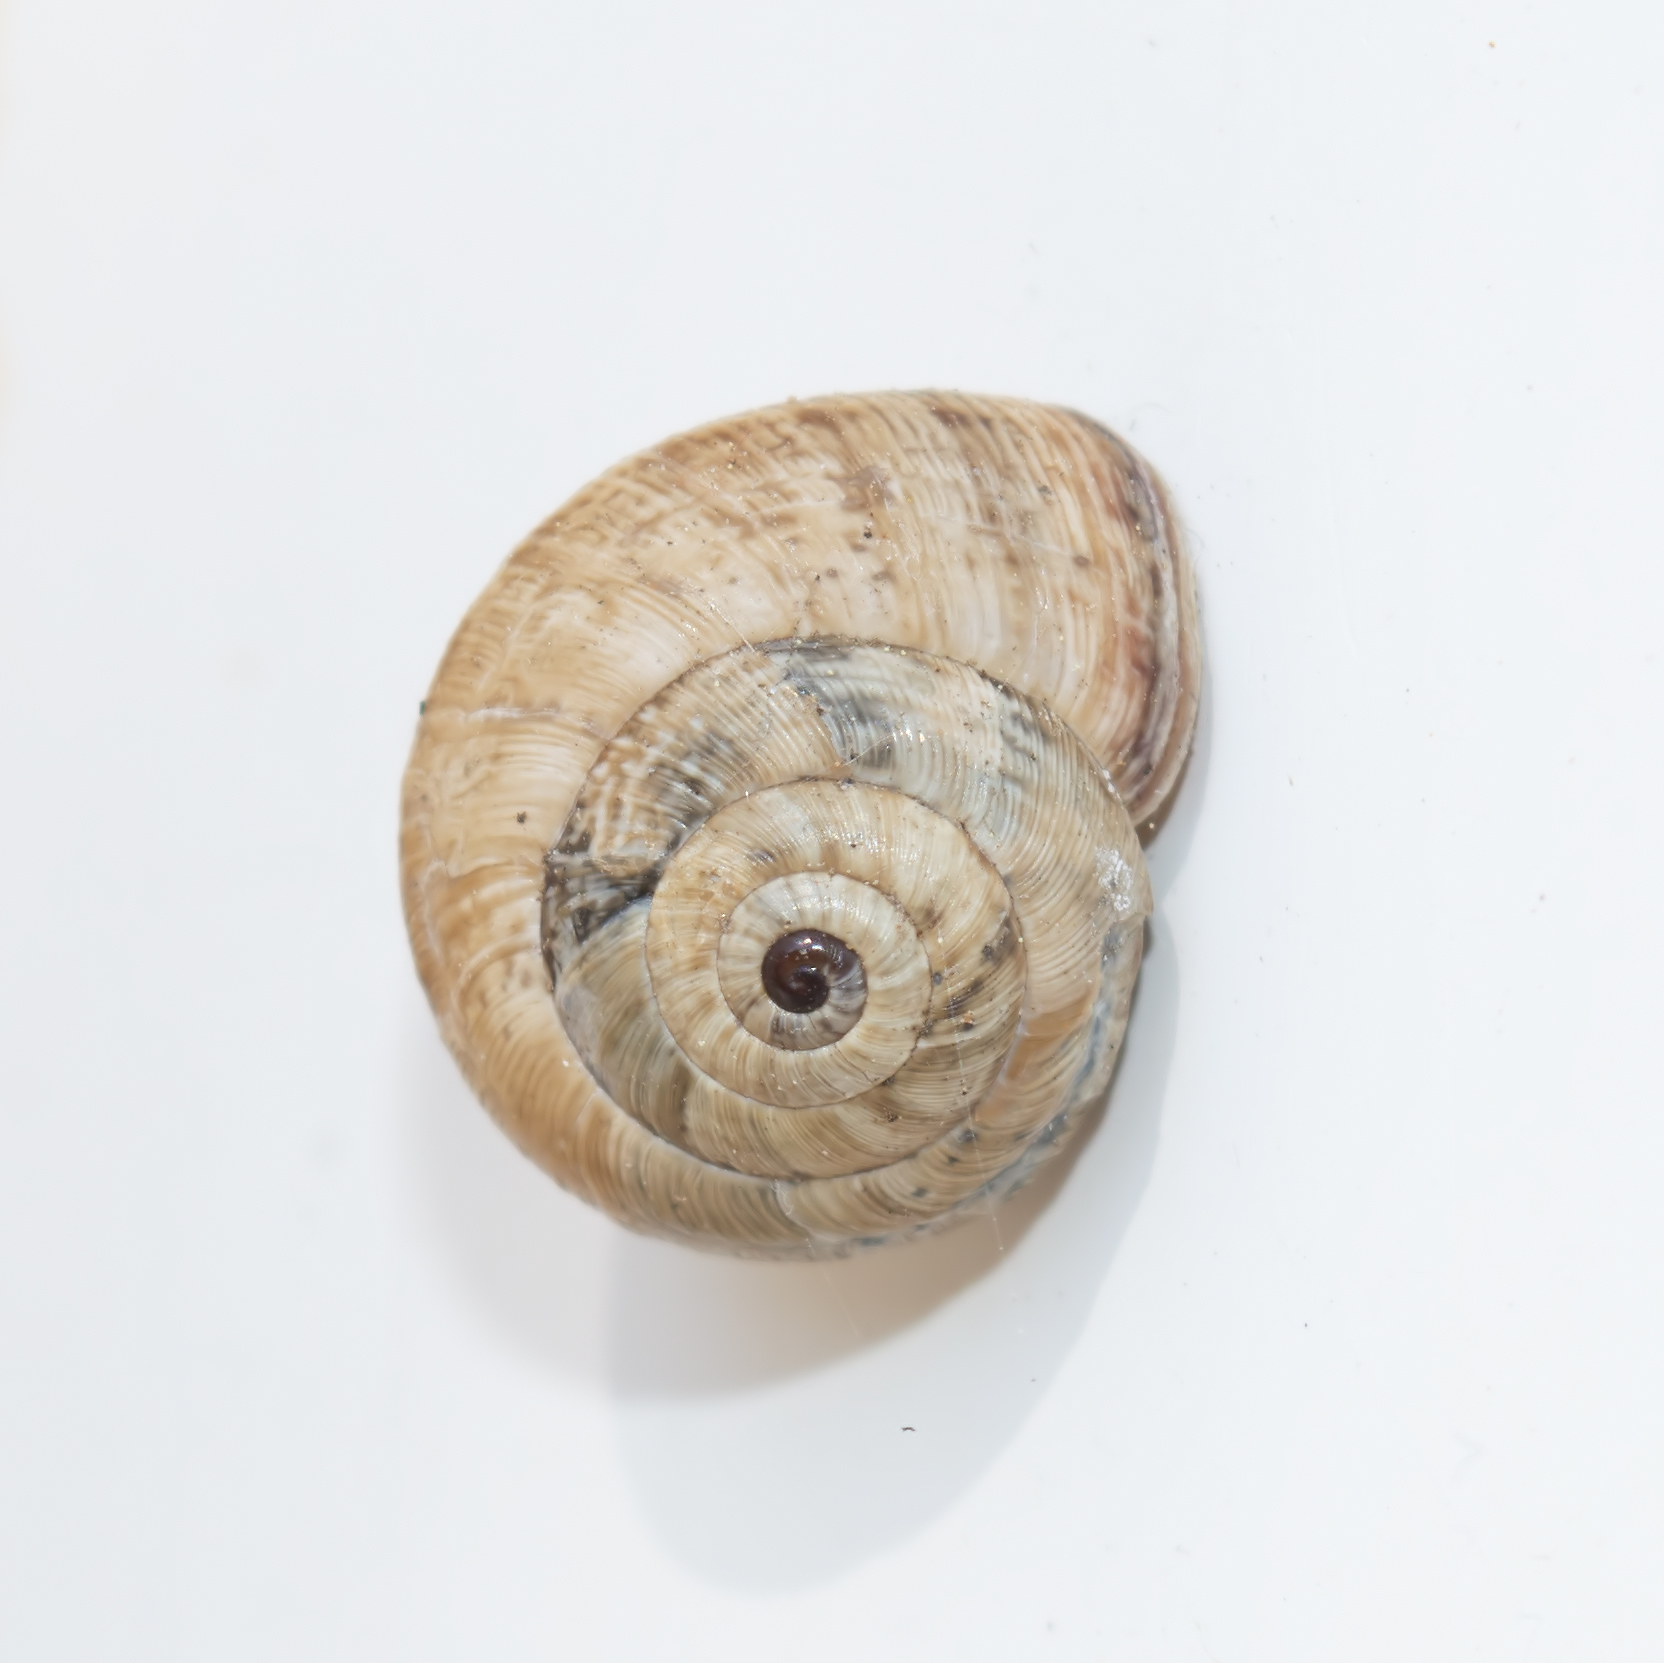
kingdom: Animalia
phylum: Mollusca
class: Gastropoda
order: Stylommatophora
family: Geomitridae
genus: Cernuella
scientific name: Cernuella virgata
